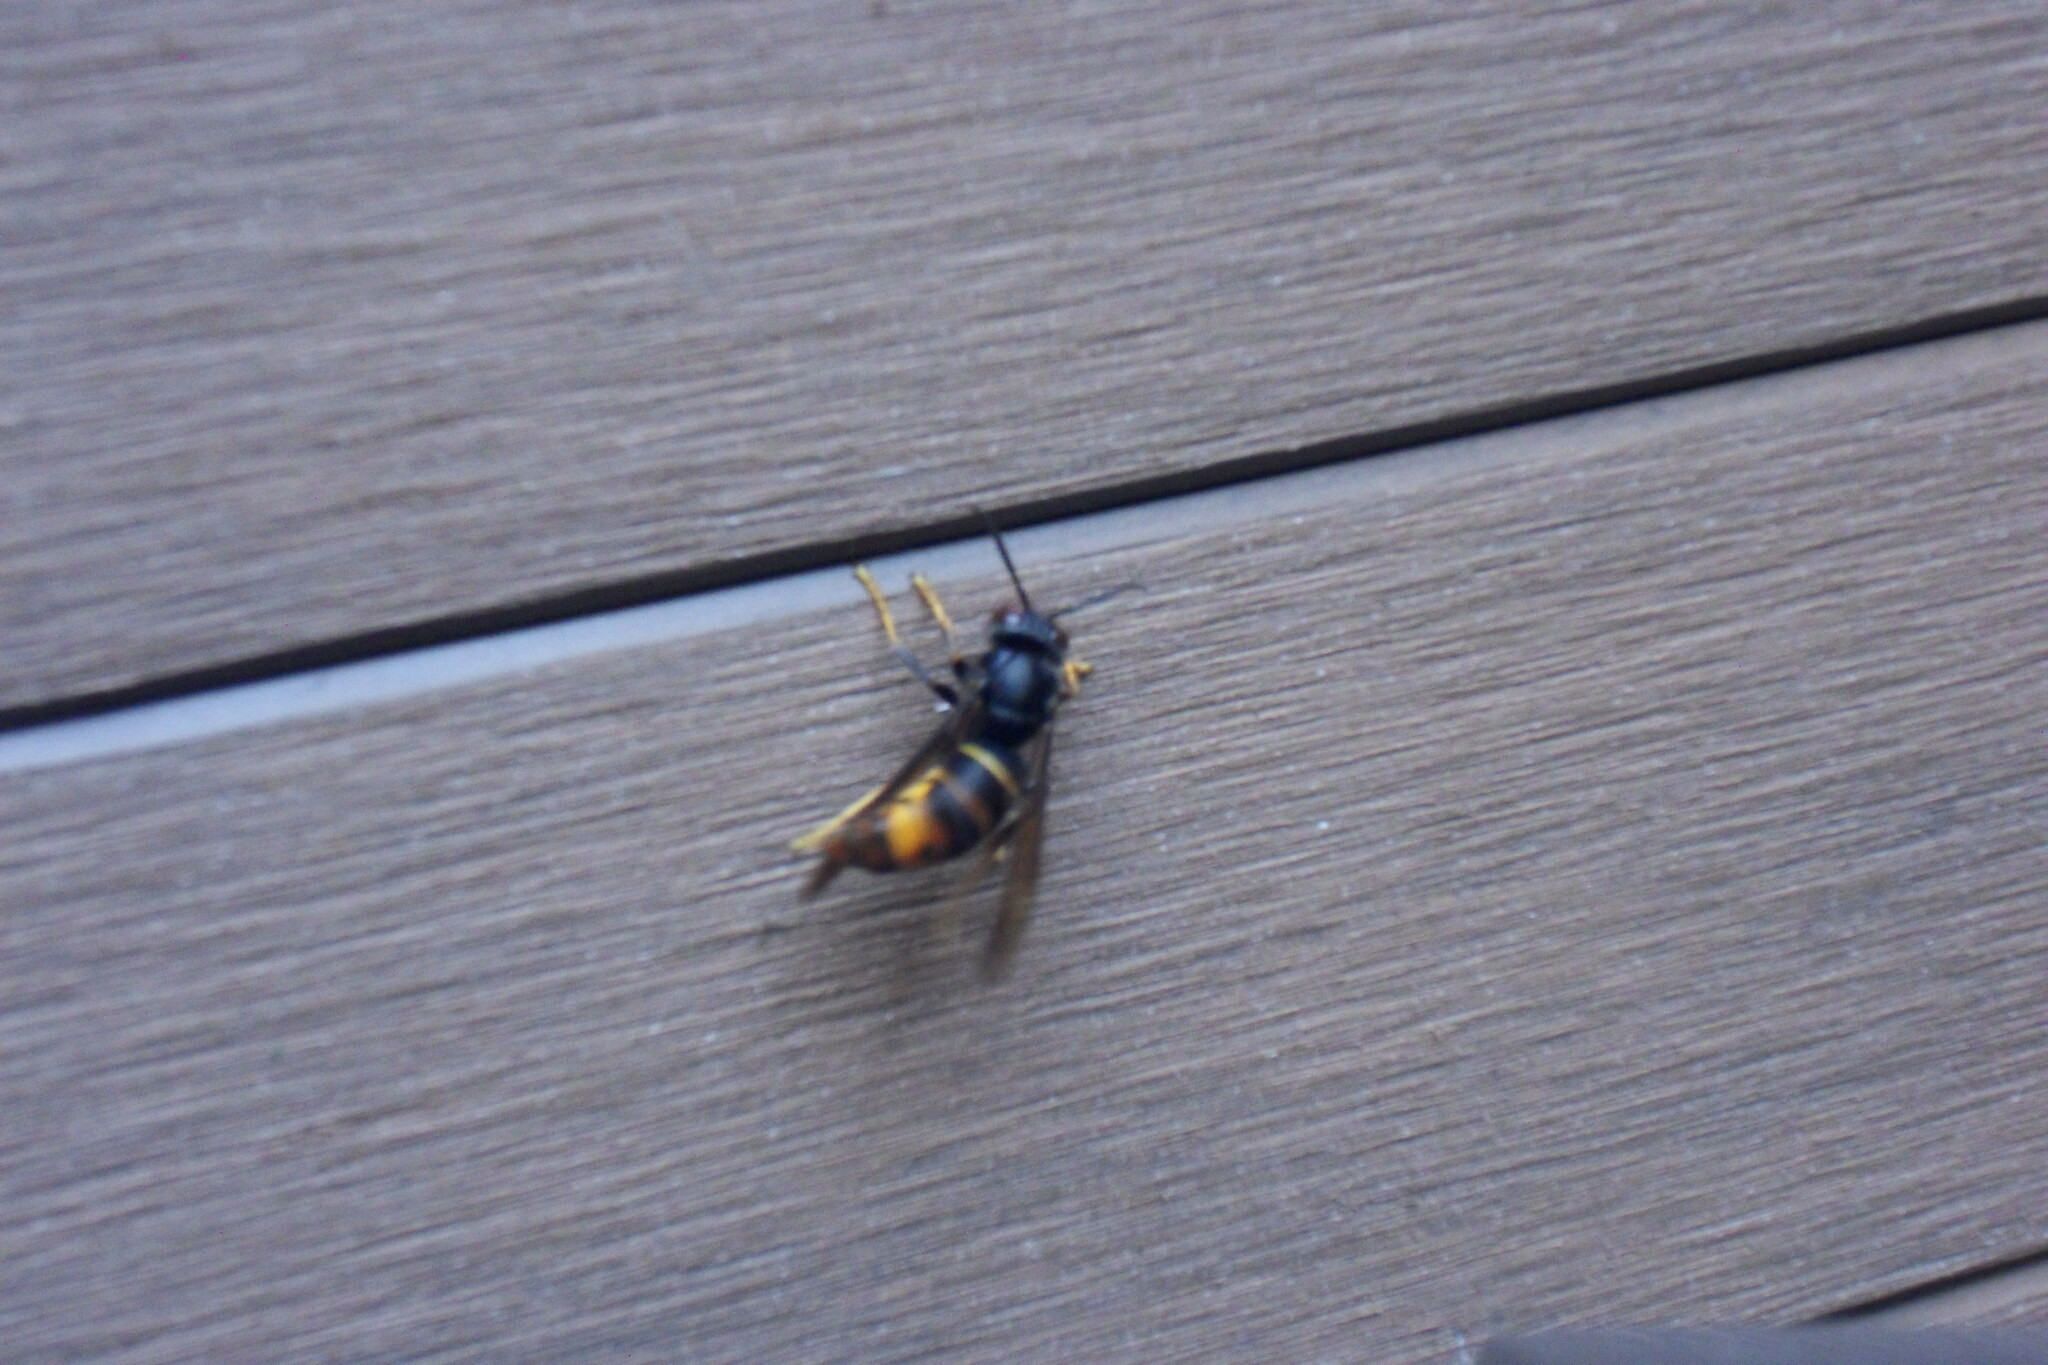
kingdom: Animalia
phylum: Arthropoda
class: Insecta
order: Hymenoptera
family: Vespidae
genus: Vespa
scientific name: Vespa velutina
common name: Asian hornet
